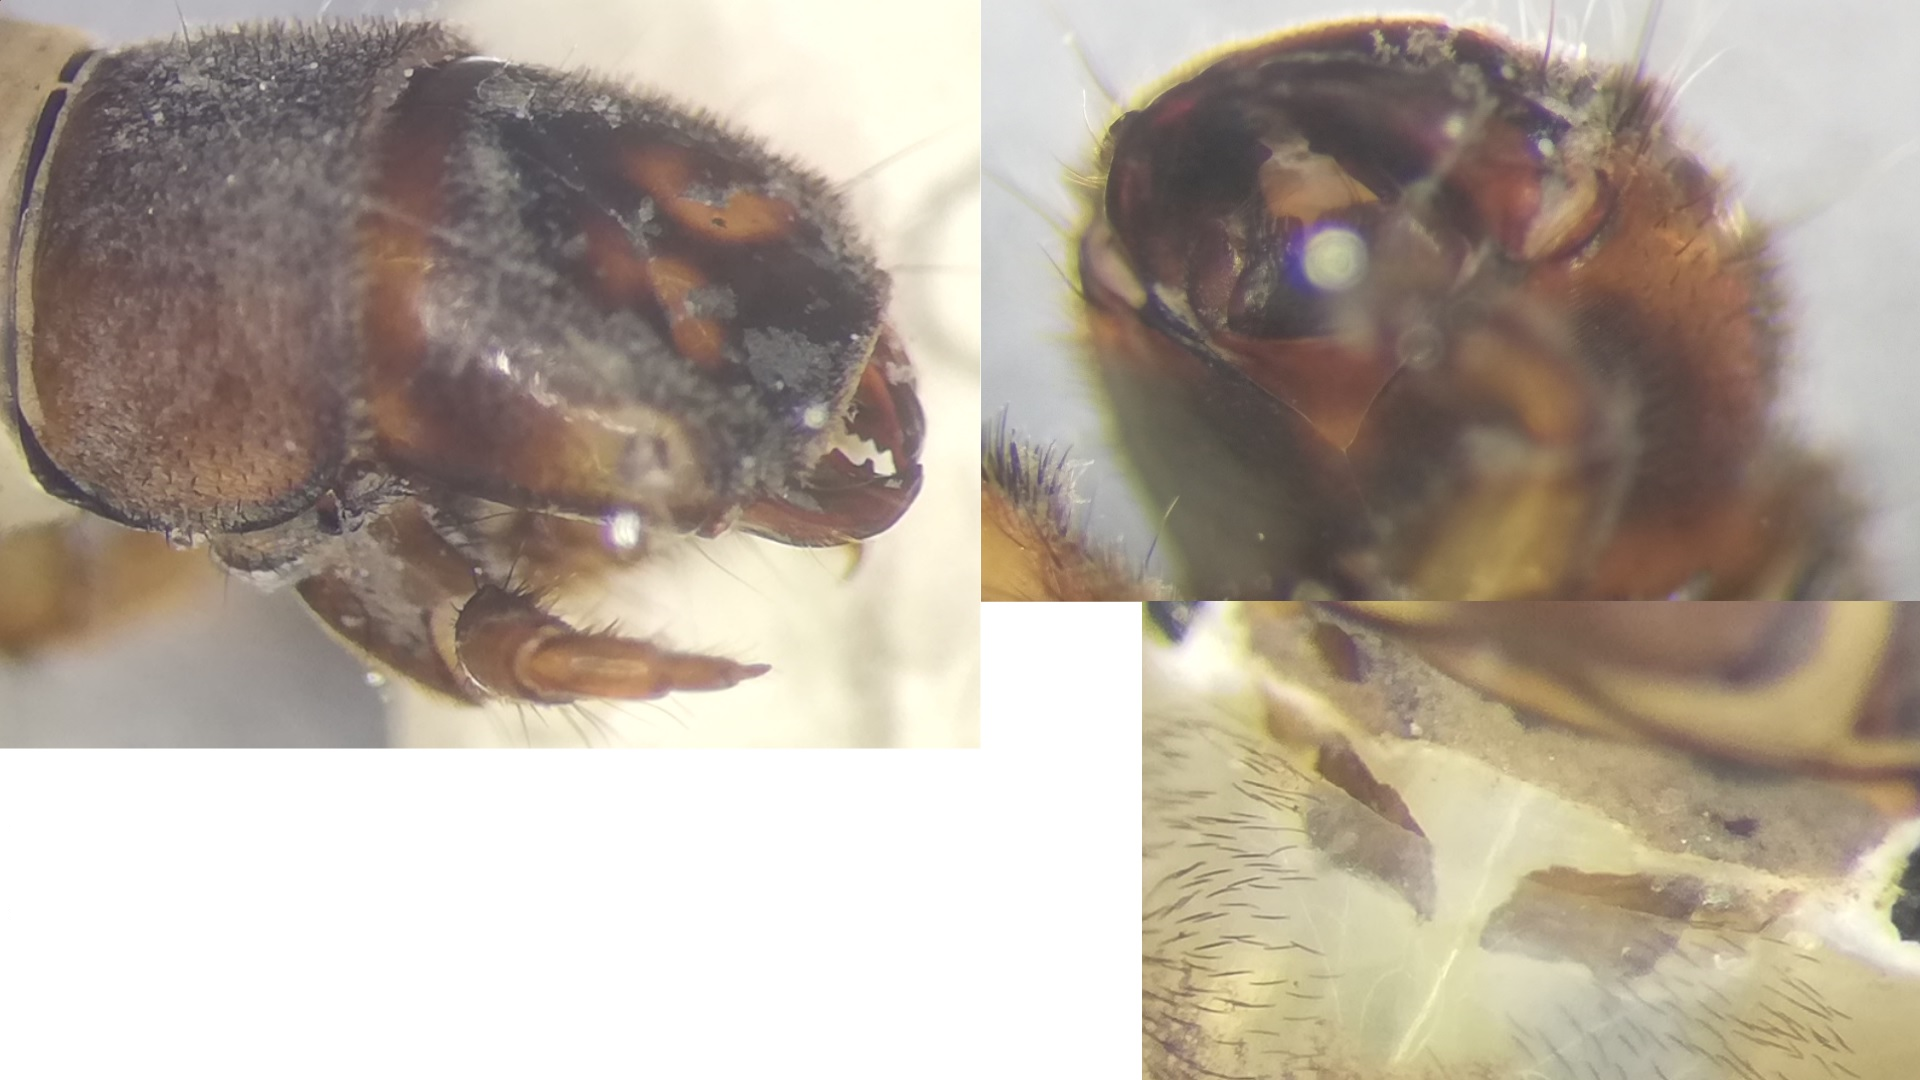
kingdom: Animalia
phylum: Arthropoda
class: Insecta
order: Trichoptera
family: Hydropsychidae
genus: Hydropsyche
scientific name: Hydropsyche saxonica
